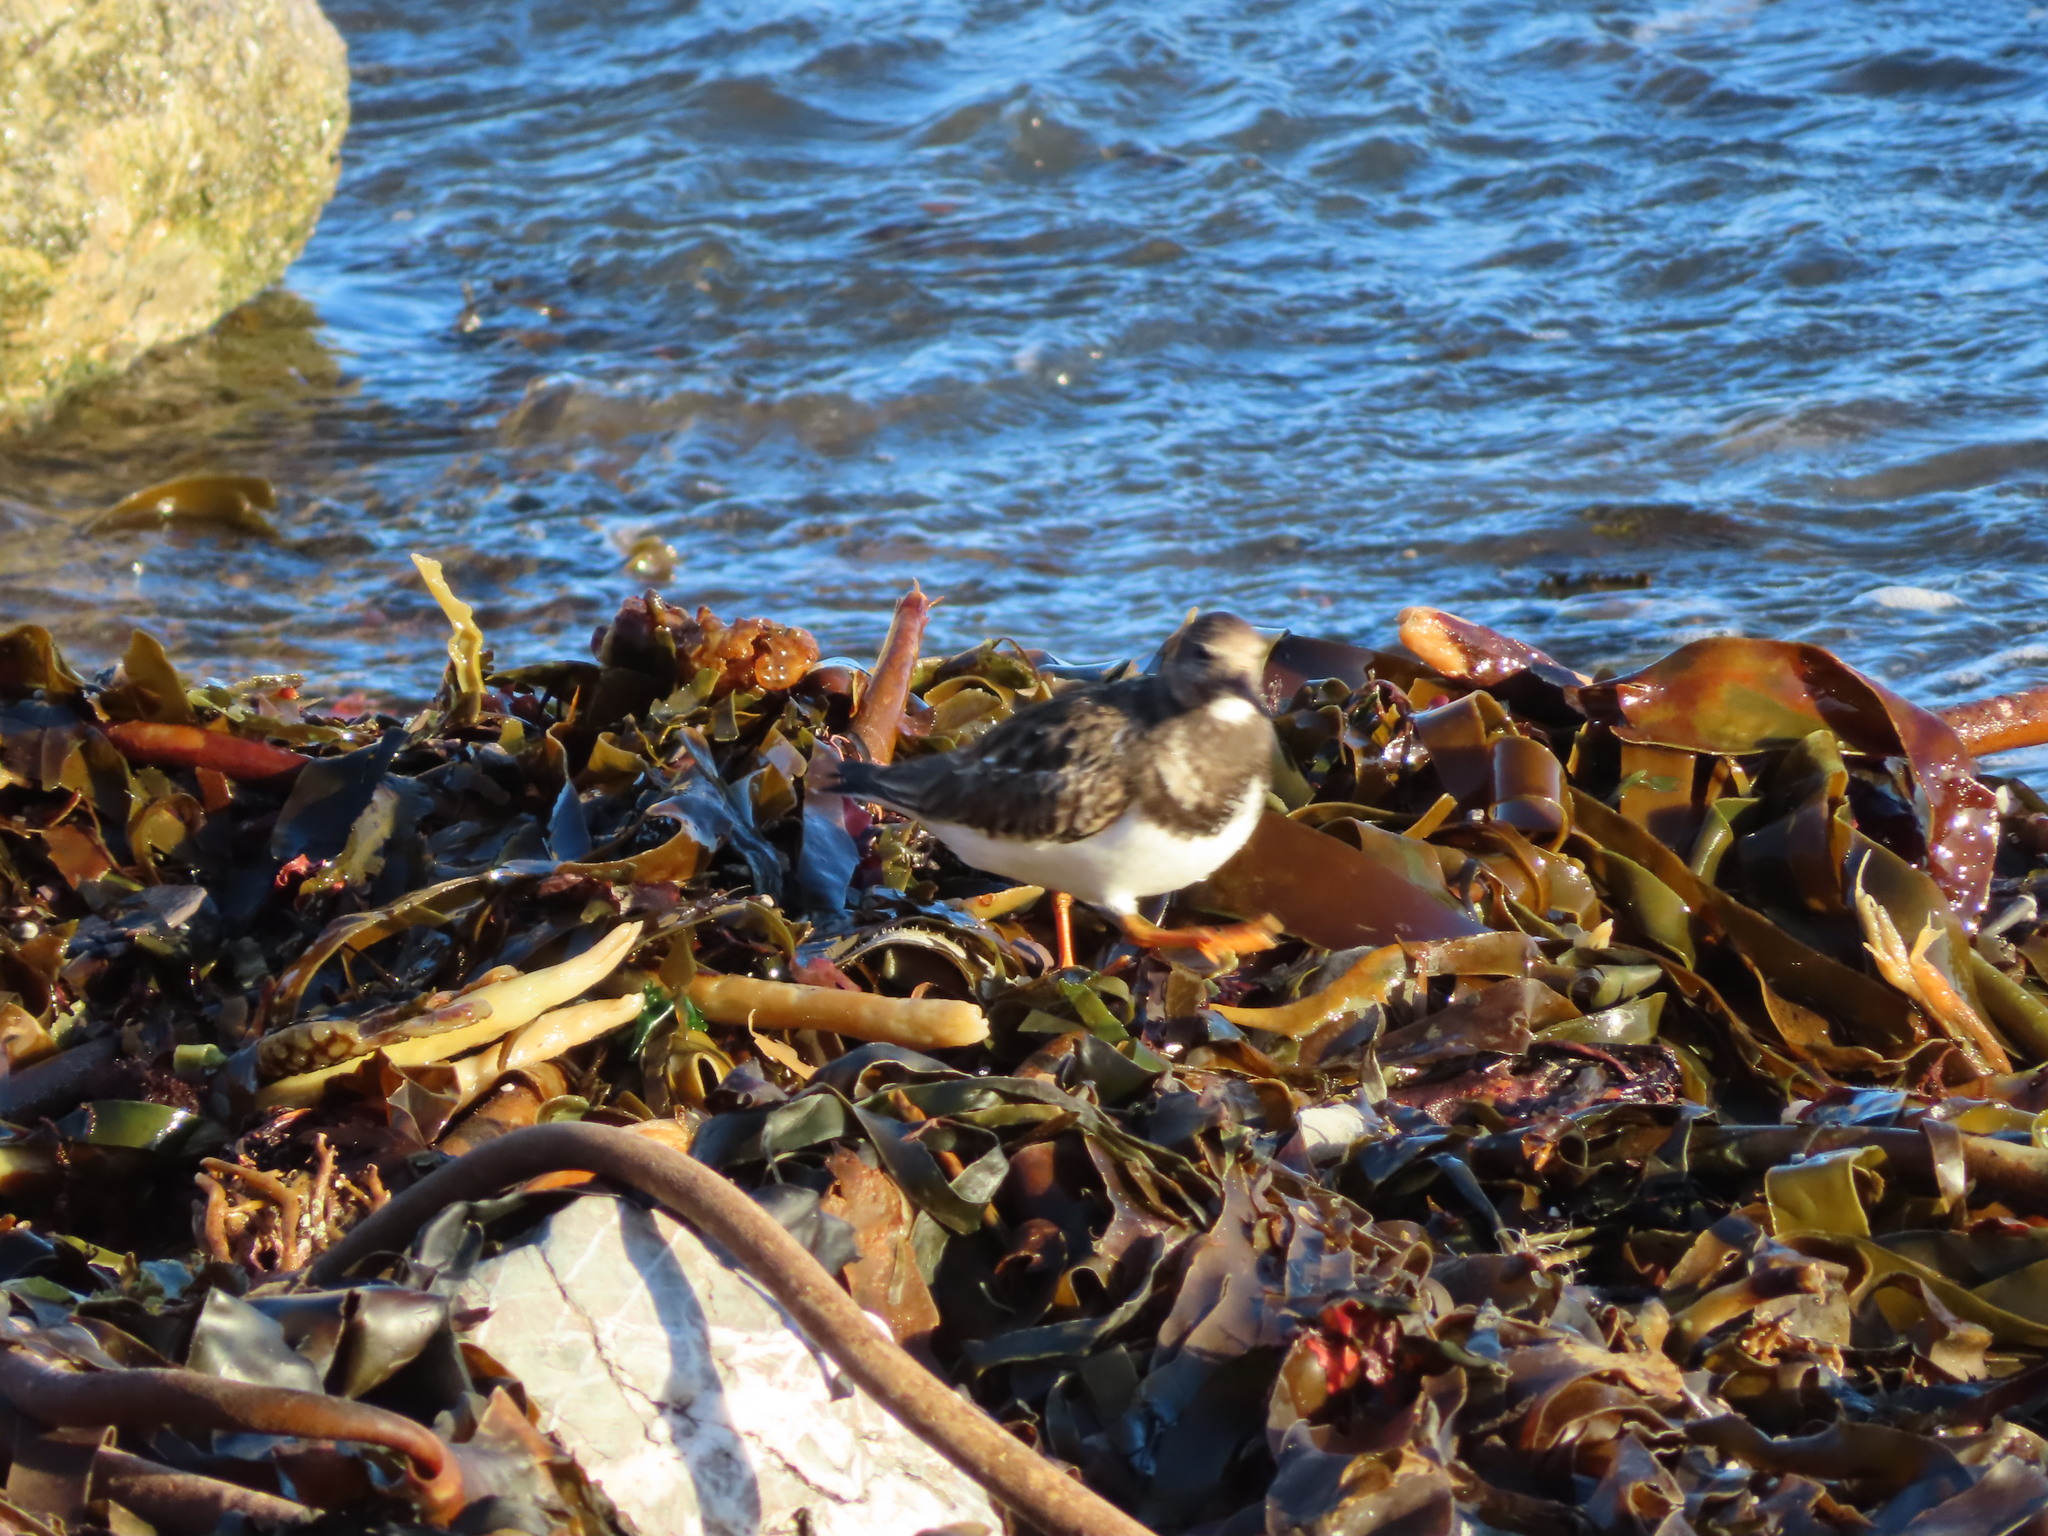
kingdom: Animalia
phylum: Chordata
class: Aves
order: Charadriiformes
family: Scolopacidae
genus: Arenaria
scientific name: Arenaria interpres
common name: Ruddy turnstone
